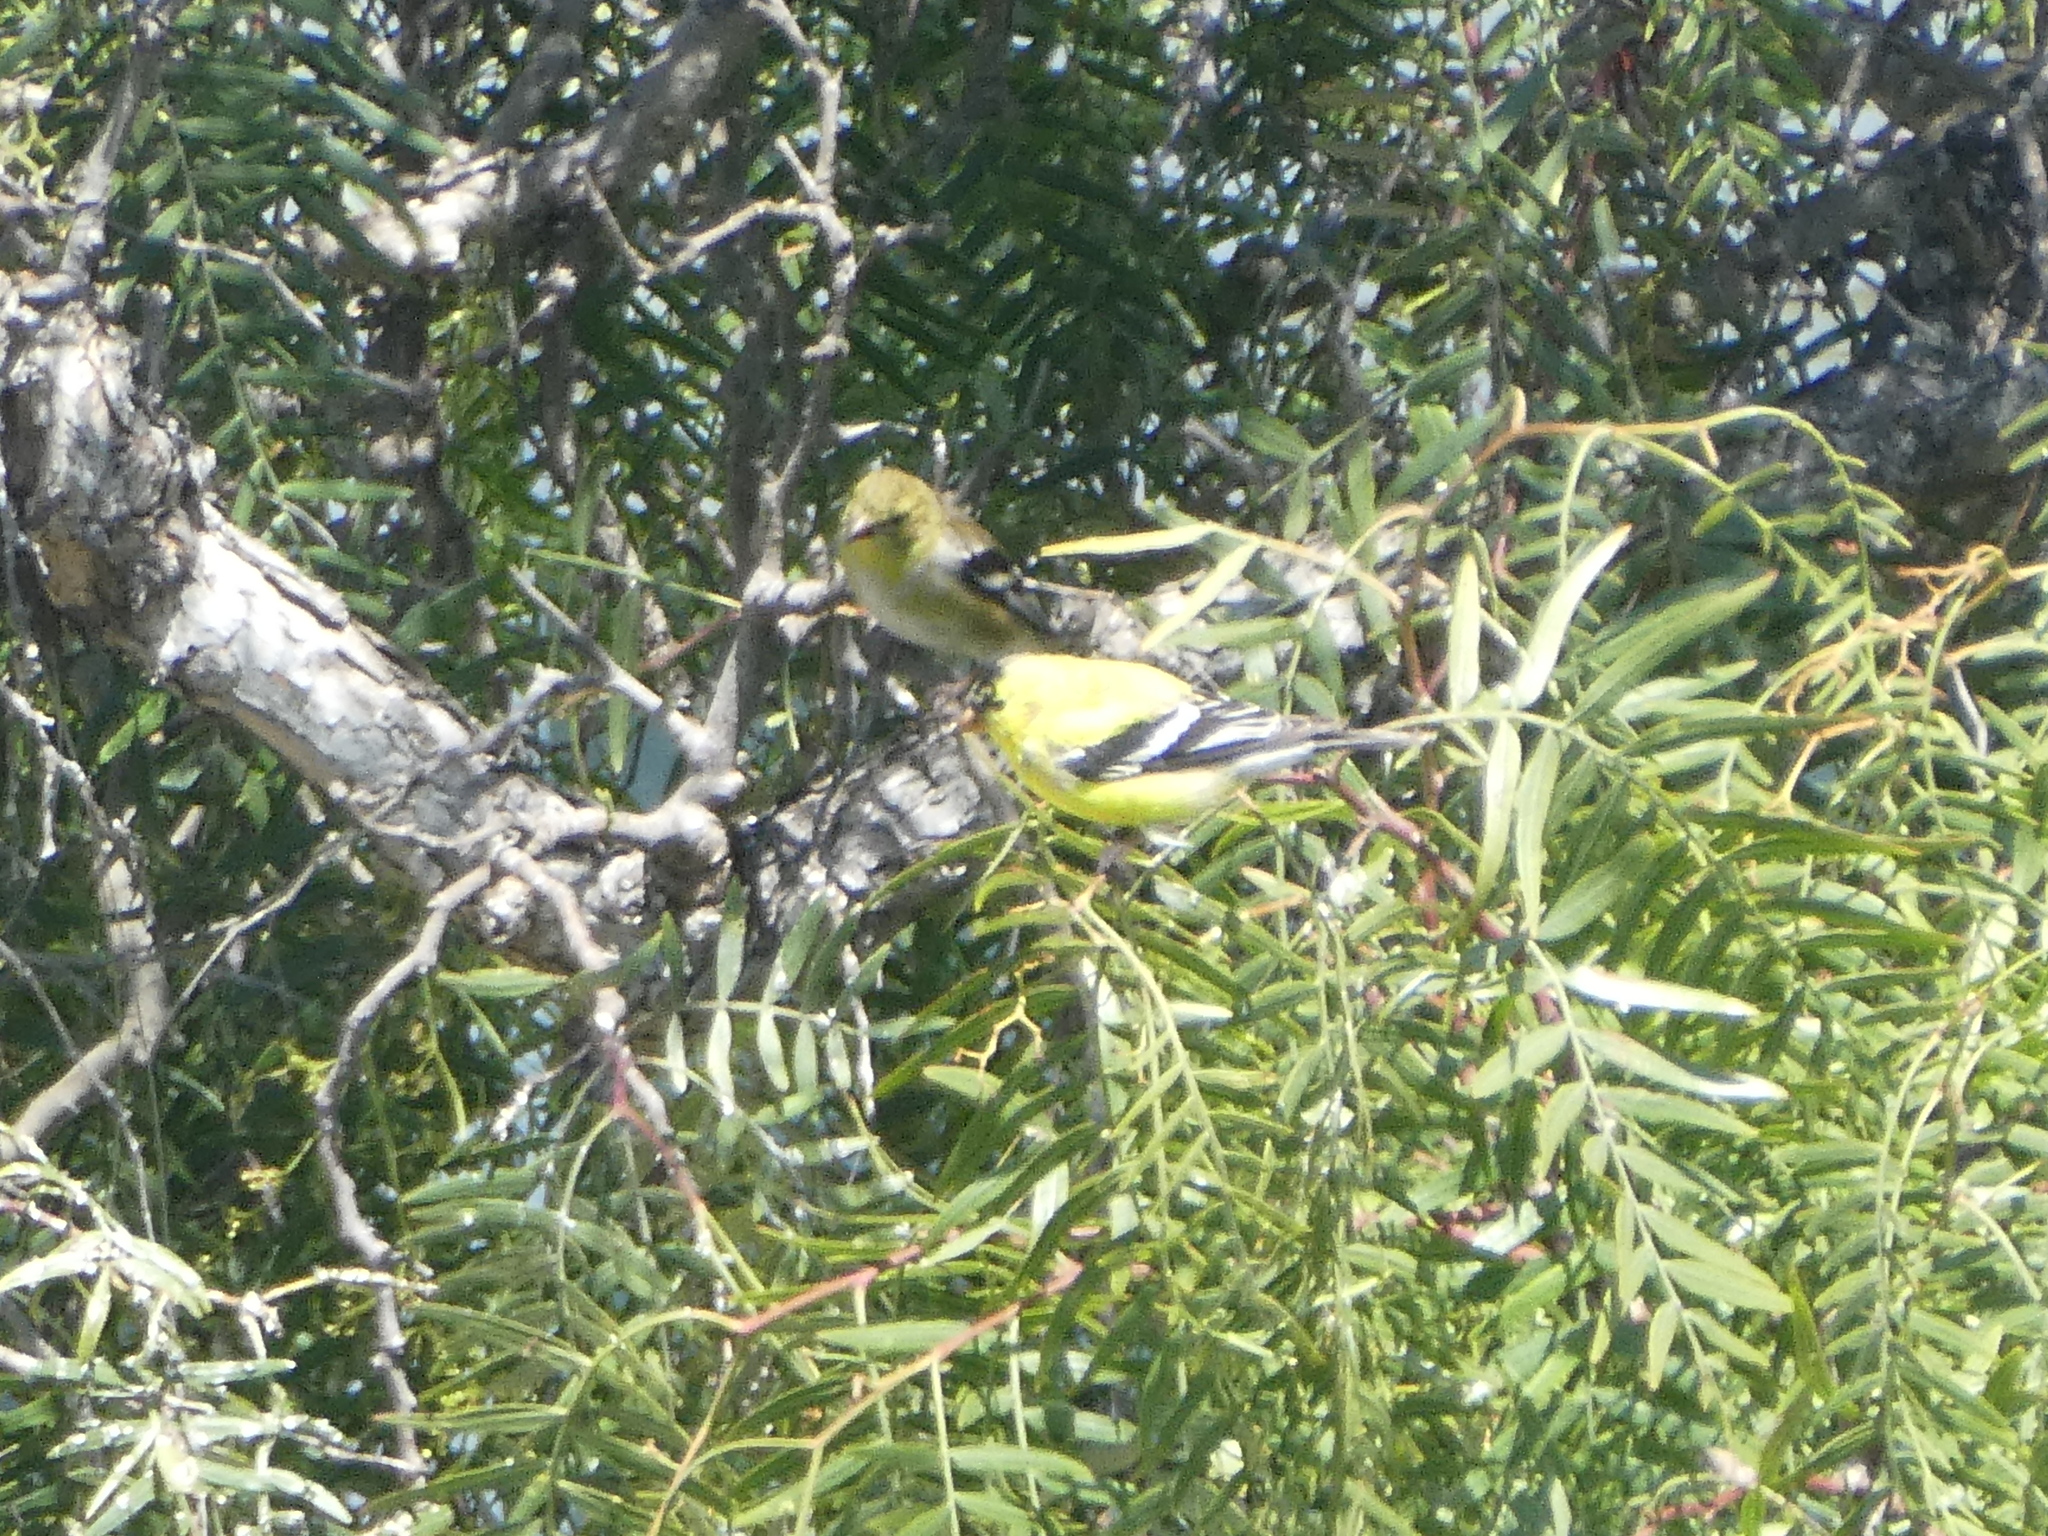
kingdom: Animalia
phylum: Chordata
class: Aves
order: Passeriformes
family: Fringillidae
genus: Spinus
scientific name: Spinus tristis
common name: American goldfinch
